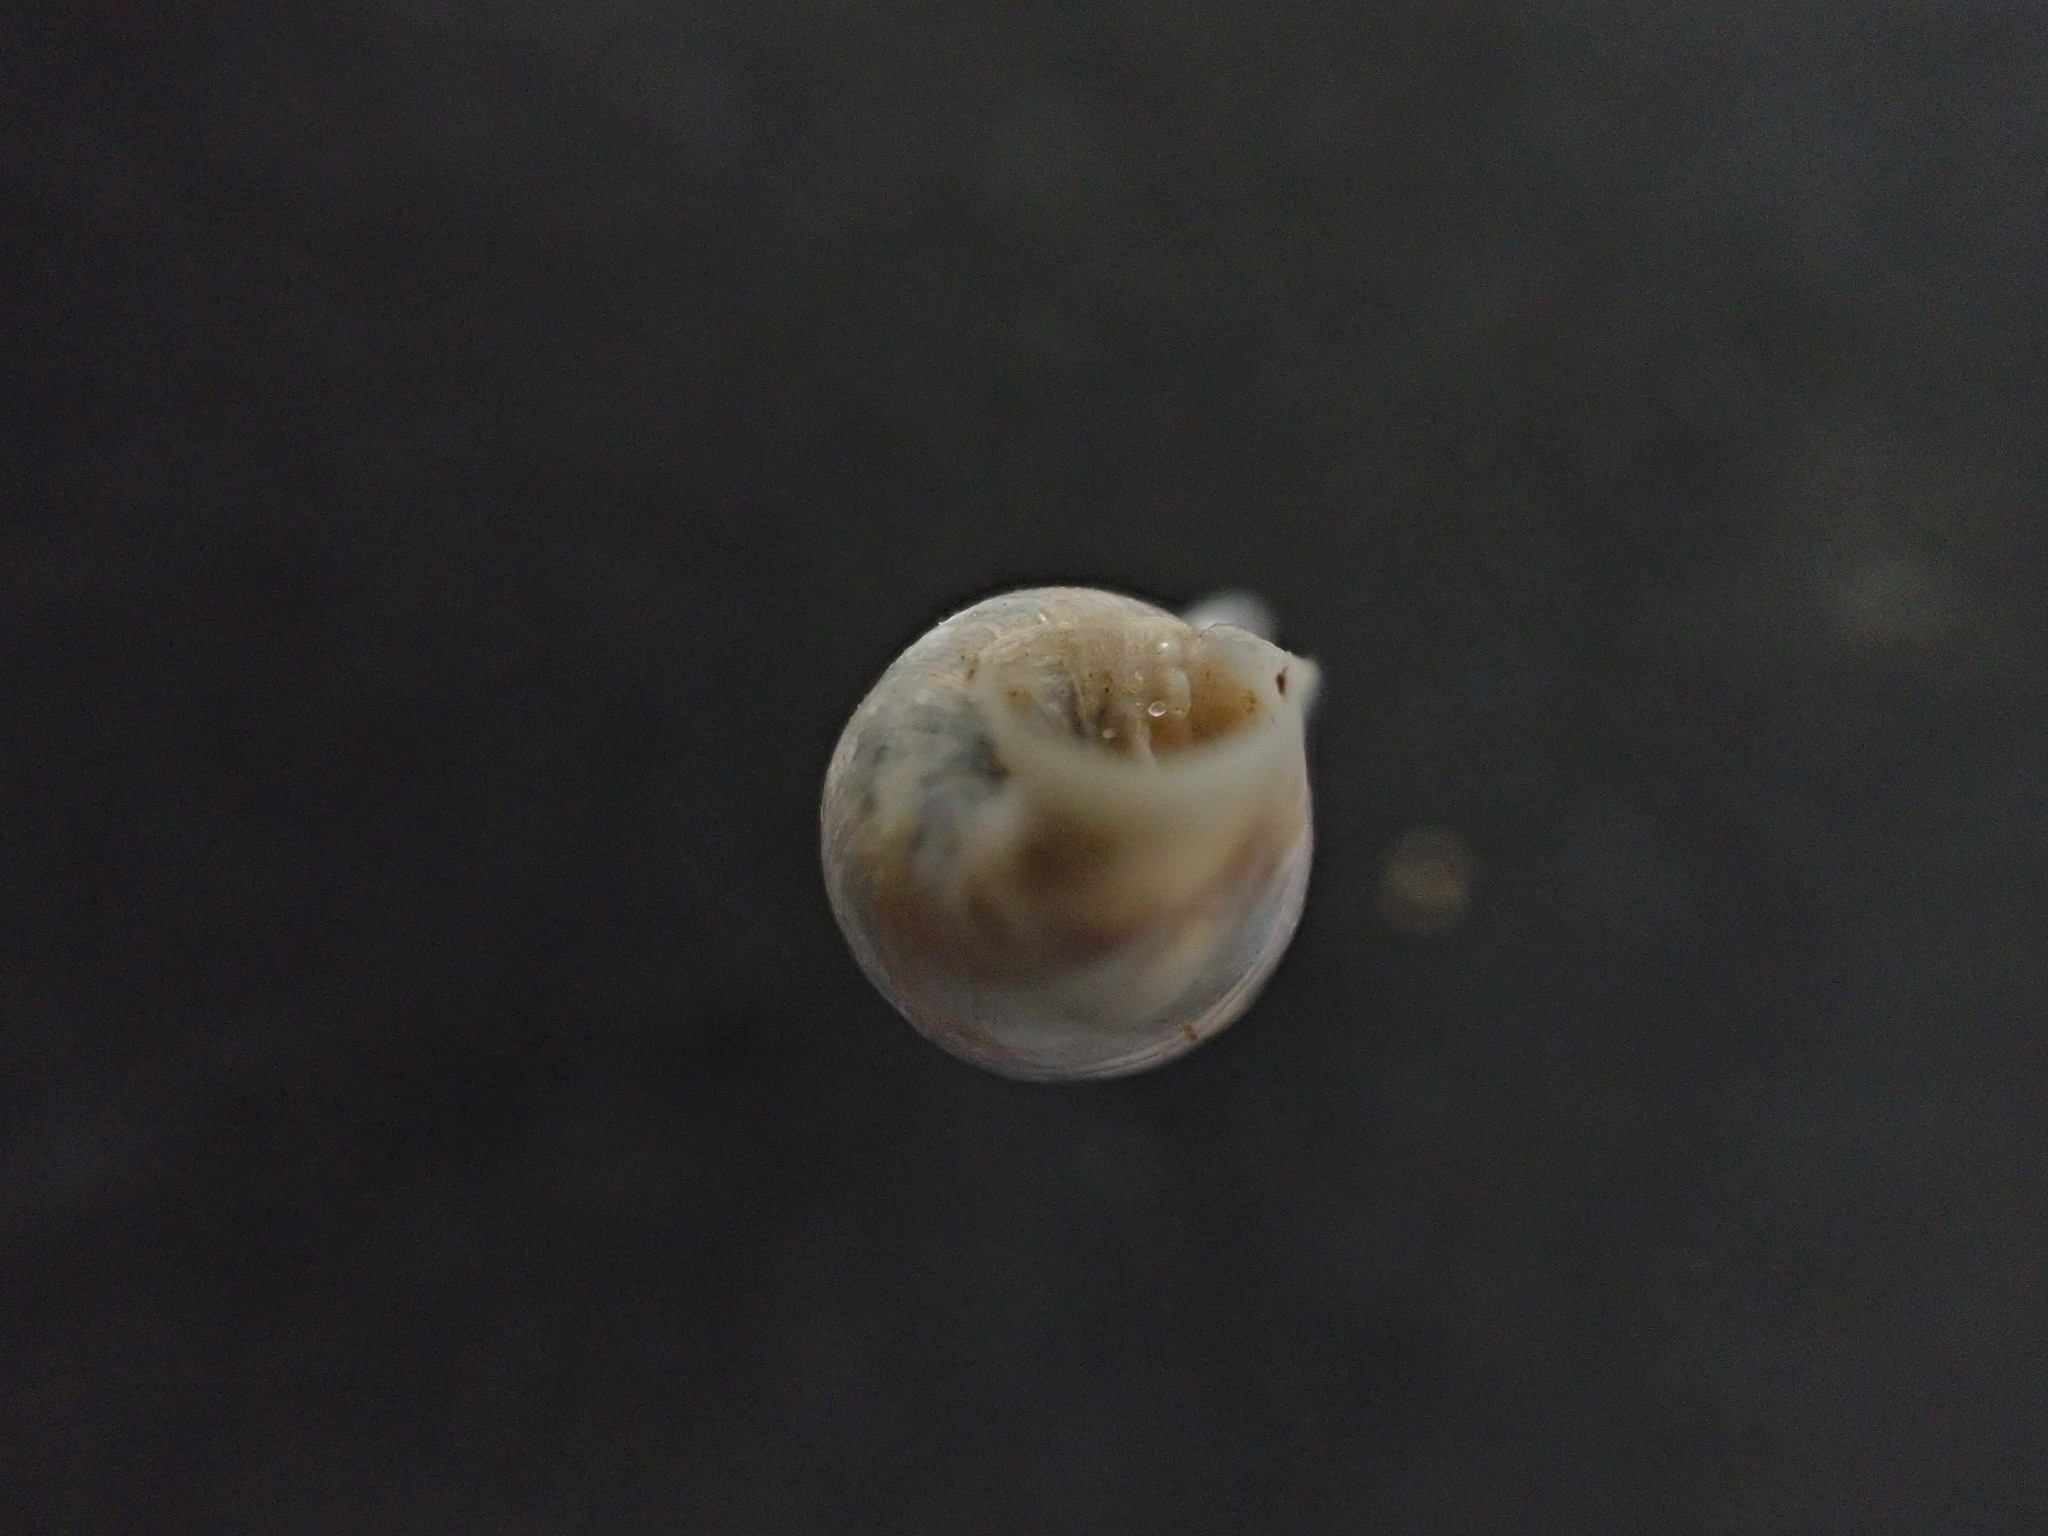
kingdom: Animalia
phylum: Mollusca
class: Gastropoda
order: Stylommatophora
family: Chondrinidae
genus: Solatopupa
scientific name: Solatopupa similis
